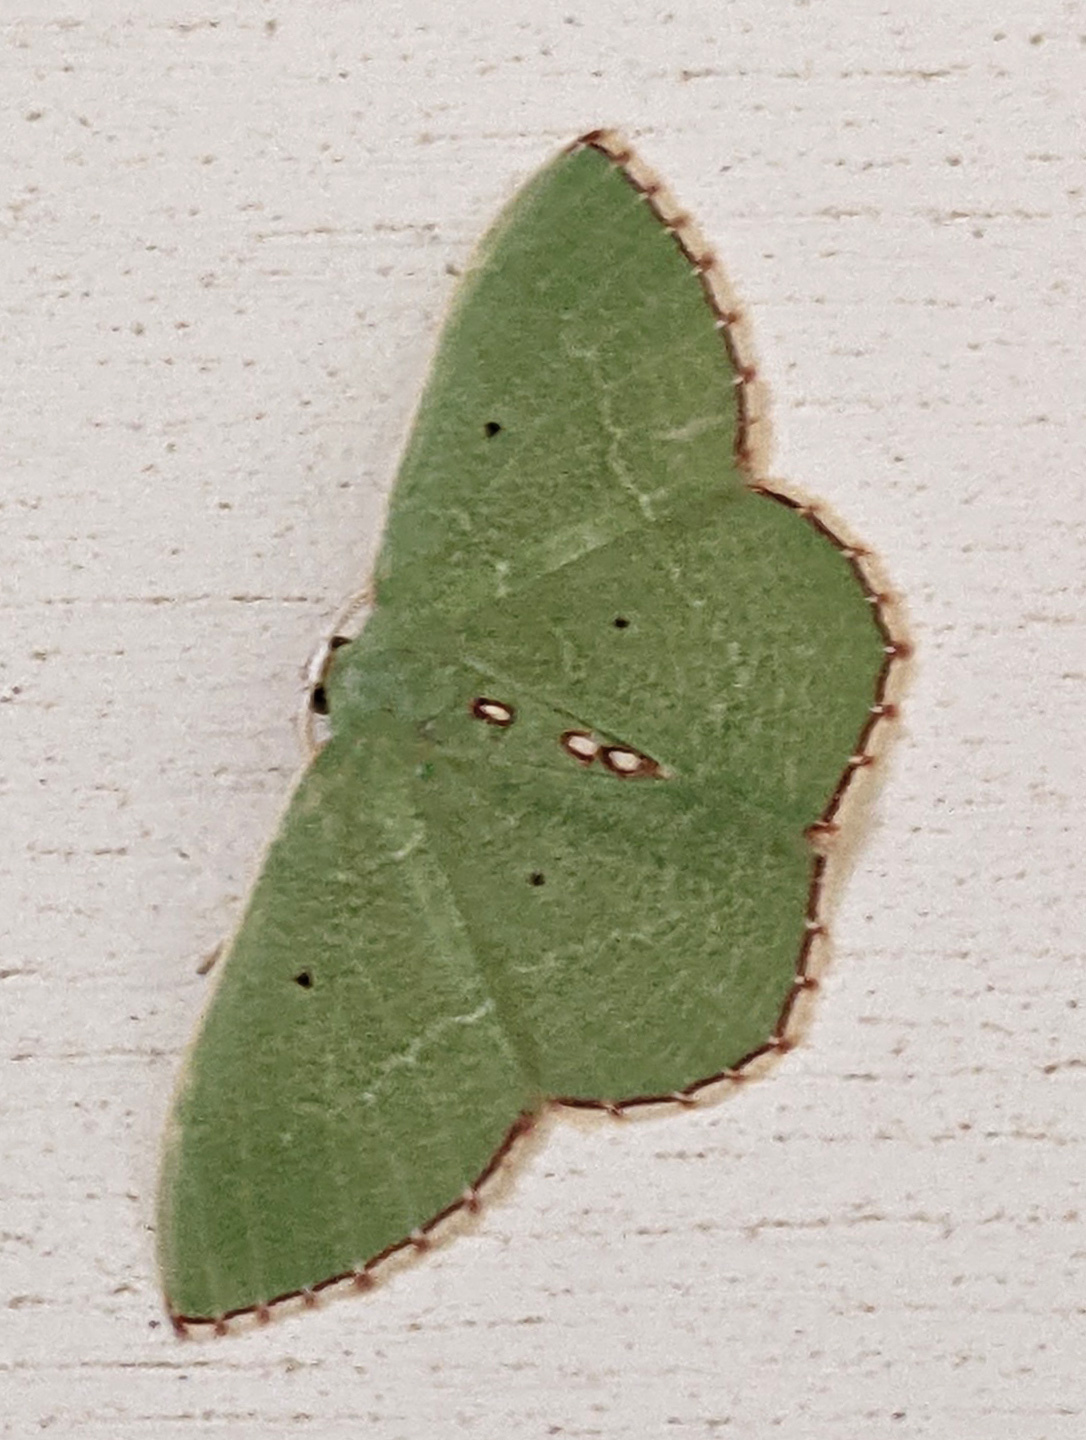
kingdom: Animalia
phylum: Arthropoda
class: Insecta
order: Lepidoptera
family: Geometridae
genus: Nemoria
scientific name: Nemoria lixaria
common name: Red-bordered emerald
